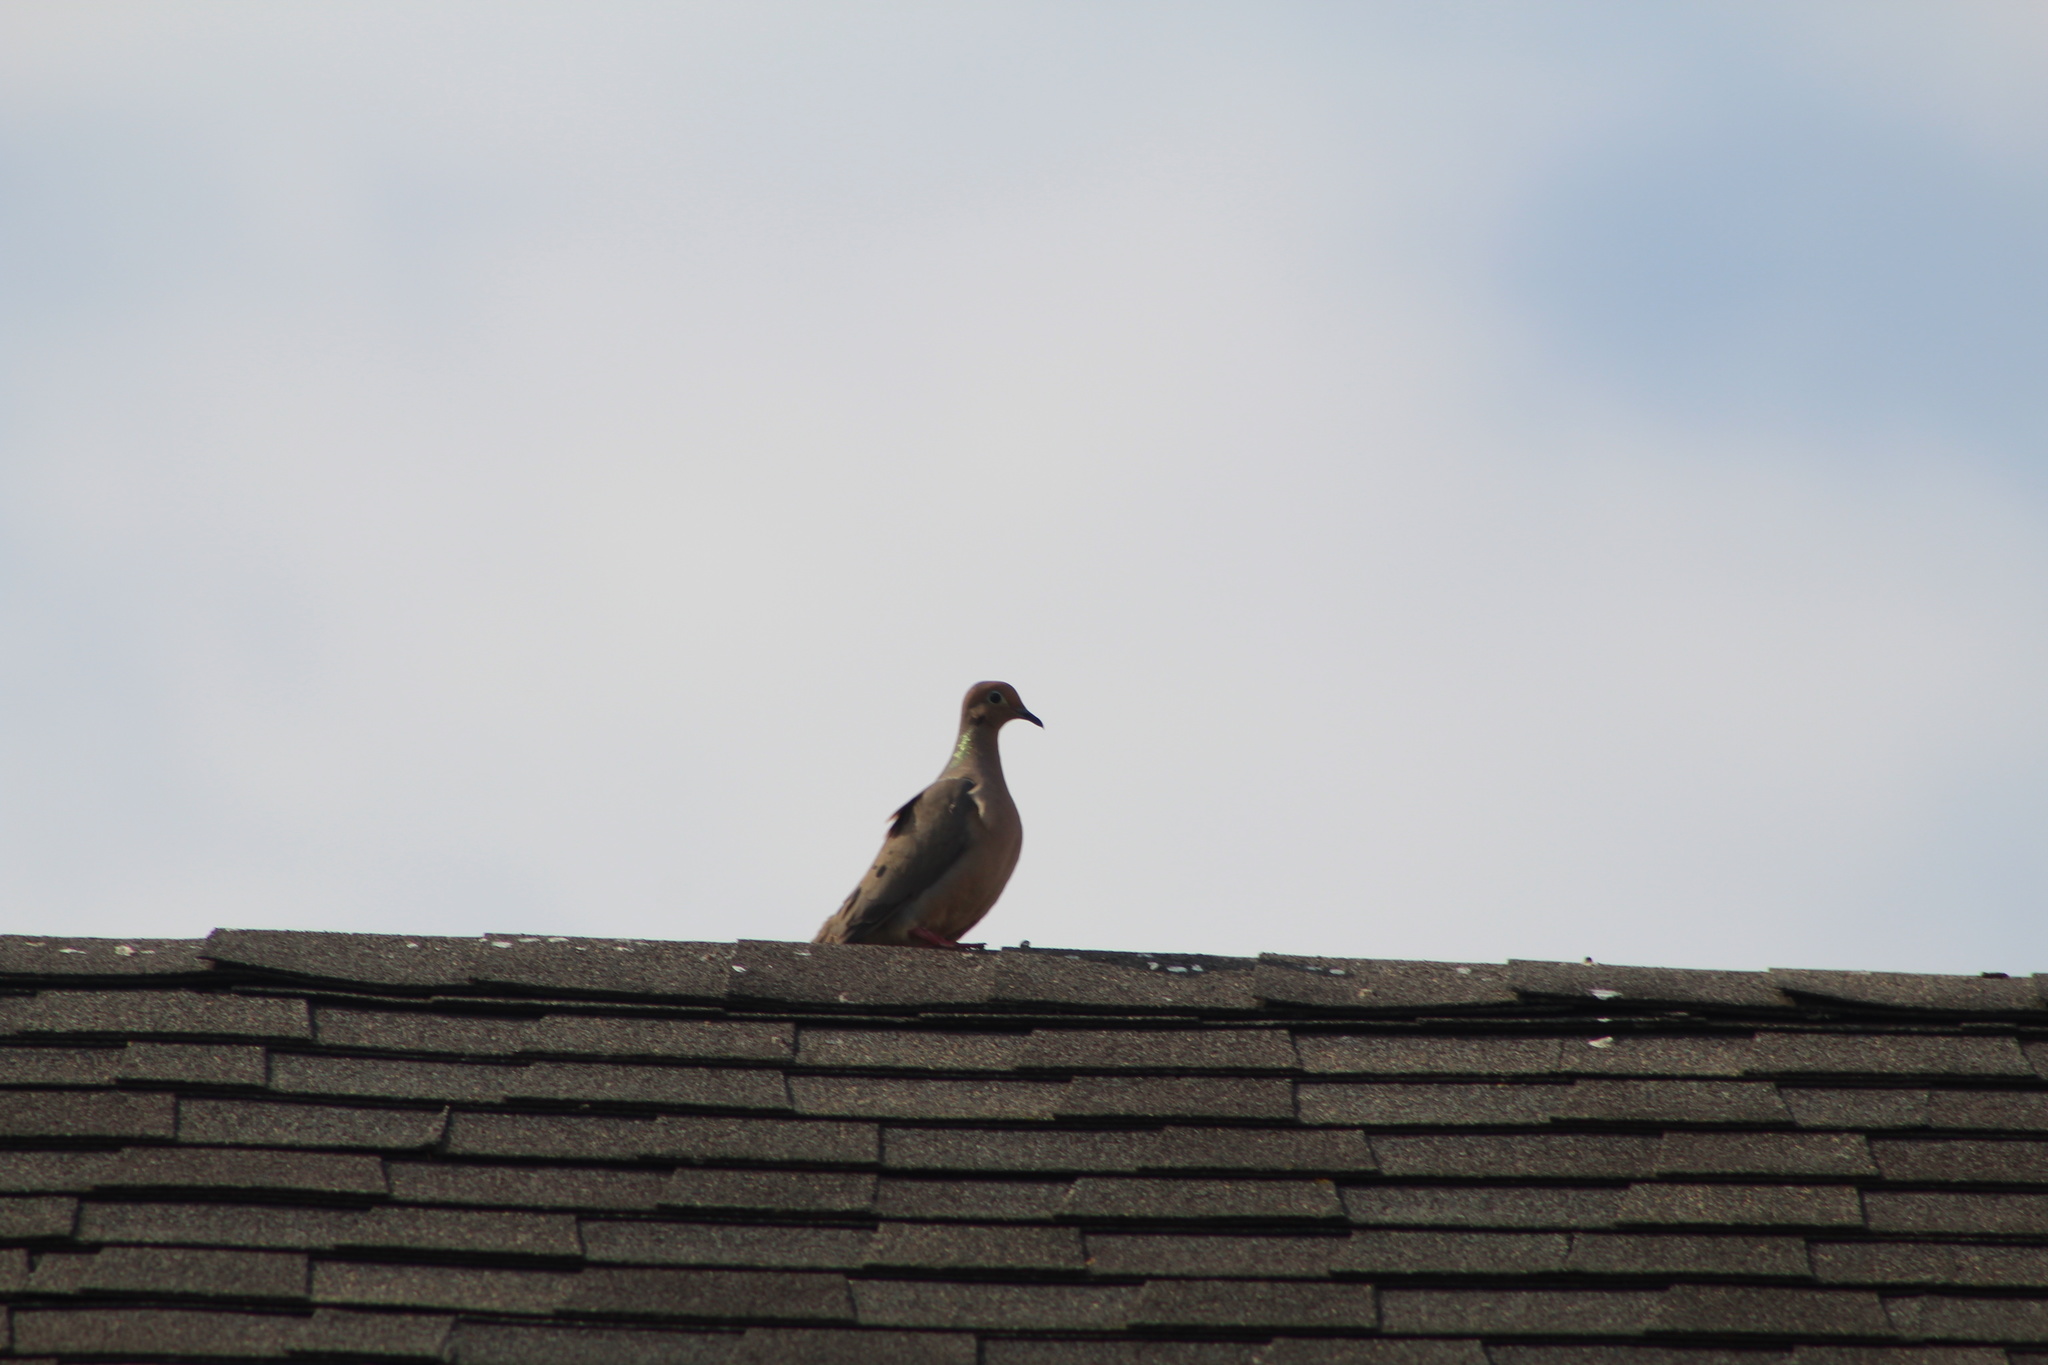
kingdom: Animalia
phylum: Chordata
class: Aves
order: Columbiformes
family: Columbidae
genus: Zenaida
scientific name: Zenaida macroura
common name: Mourning dove
